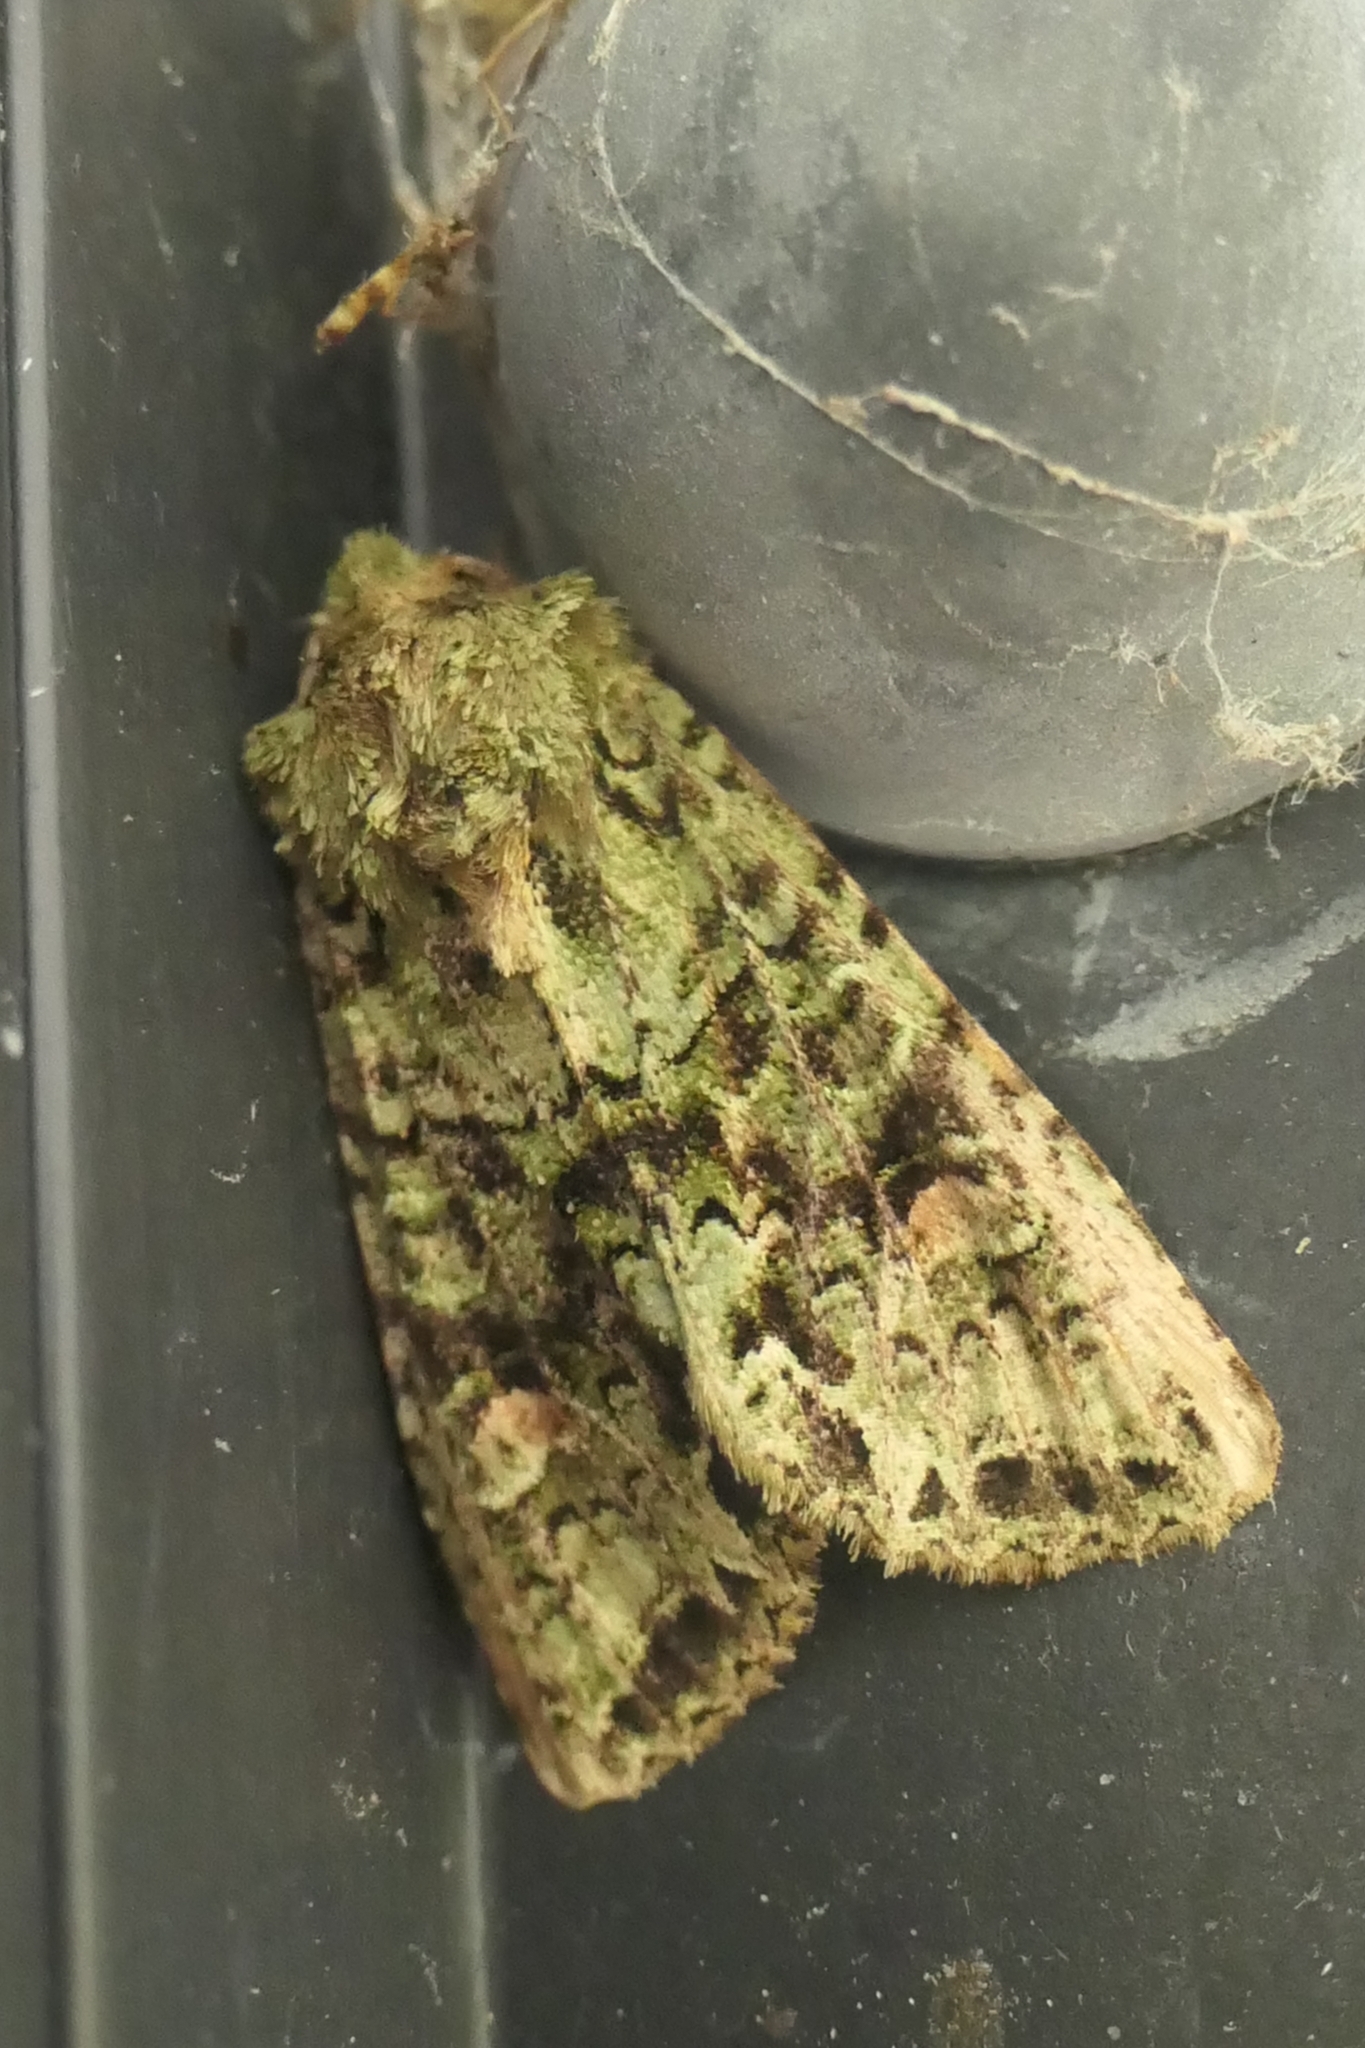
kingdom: Animalia
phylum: Arthropoda
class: Insecta
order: Lepidoptera
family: Noctuidae
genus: Ichneutica
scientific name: Ichneutica
